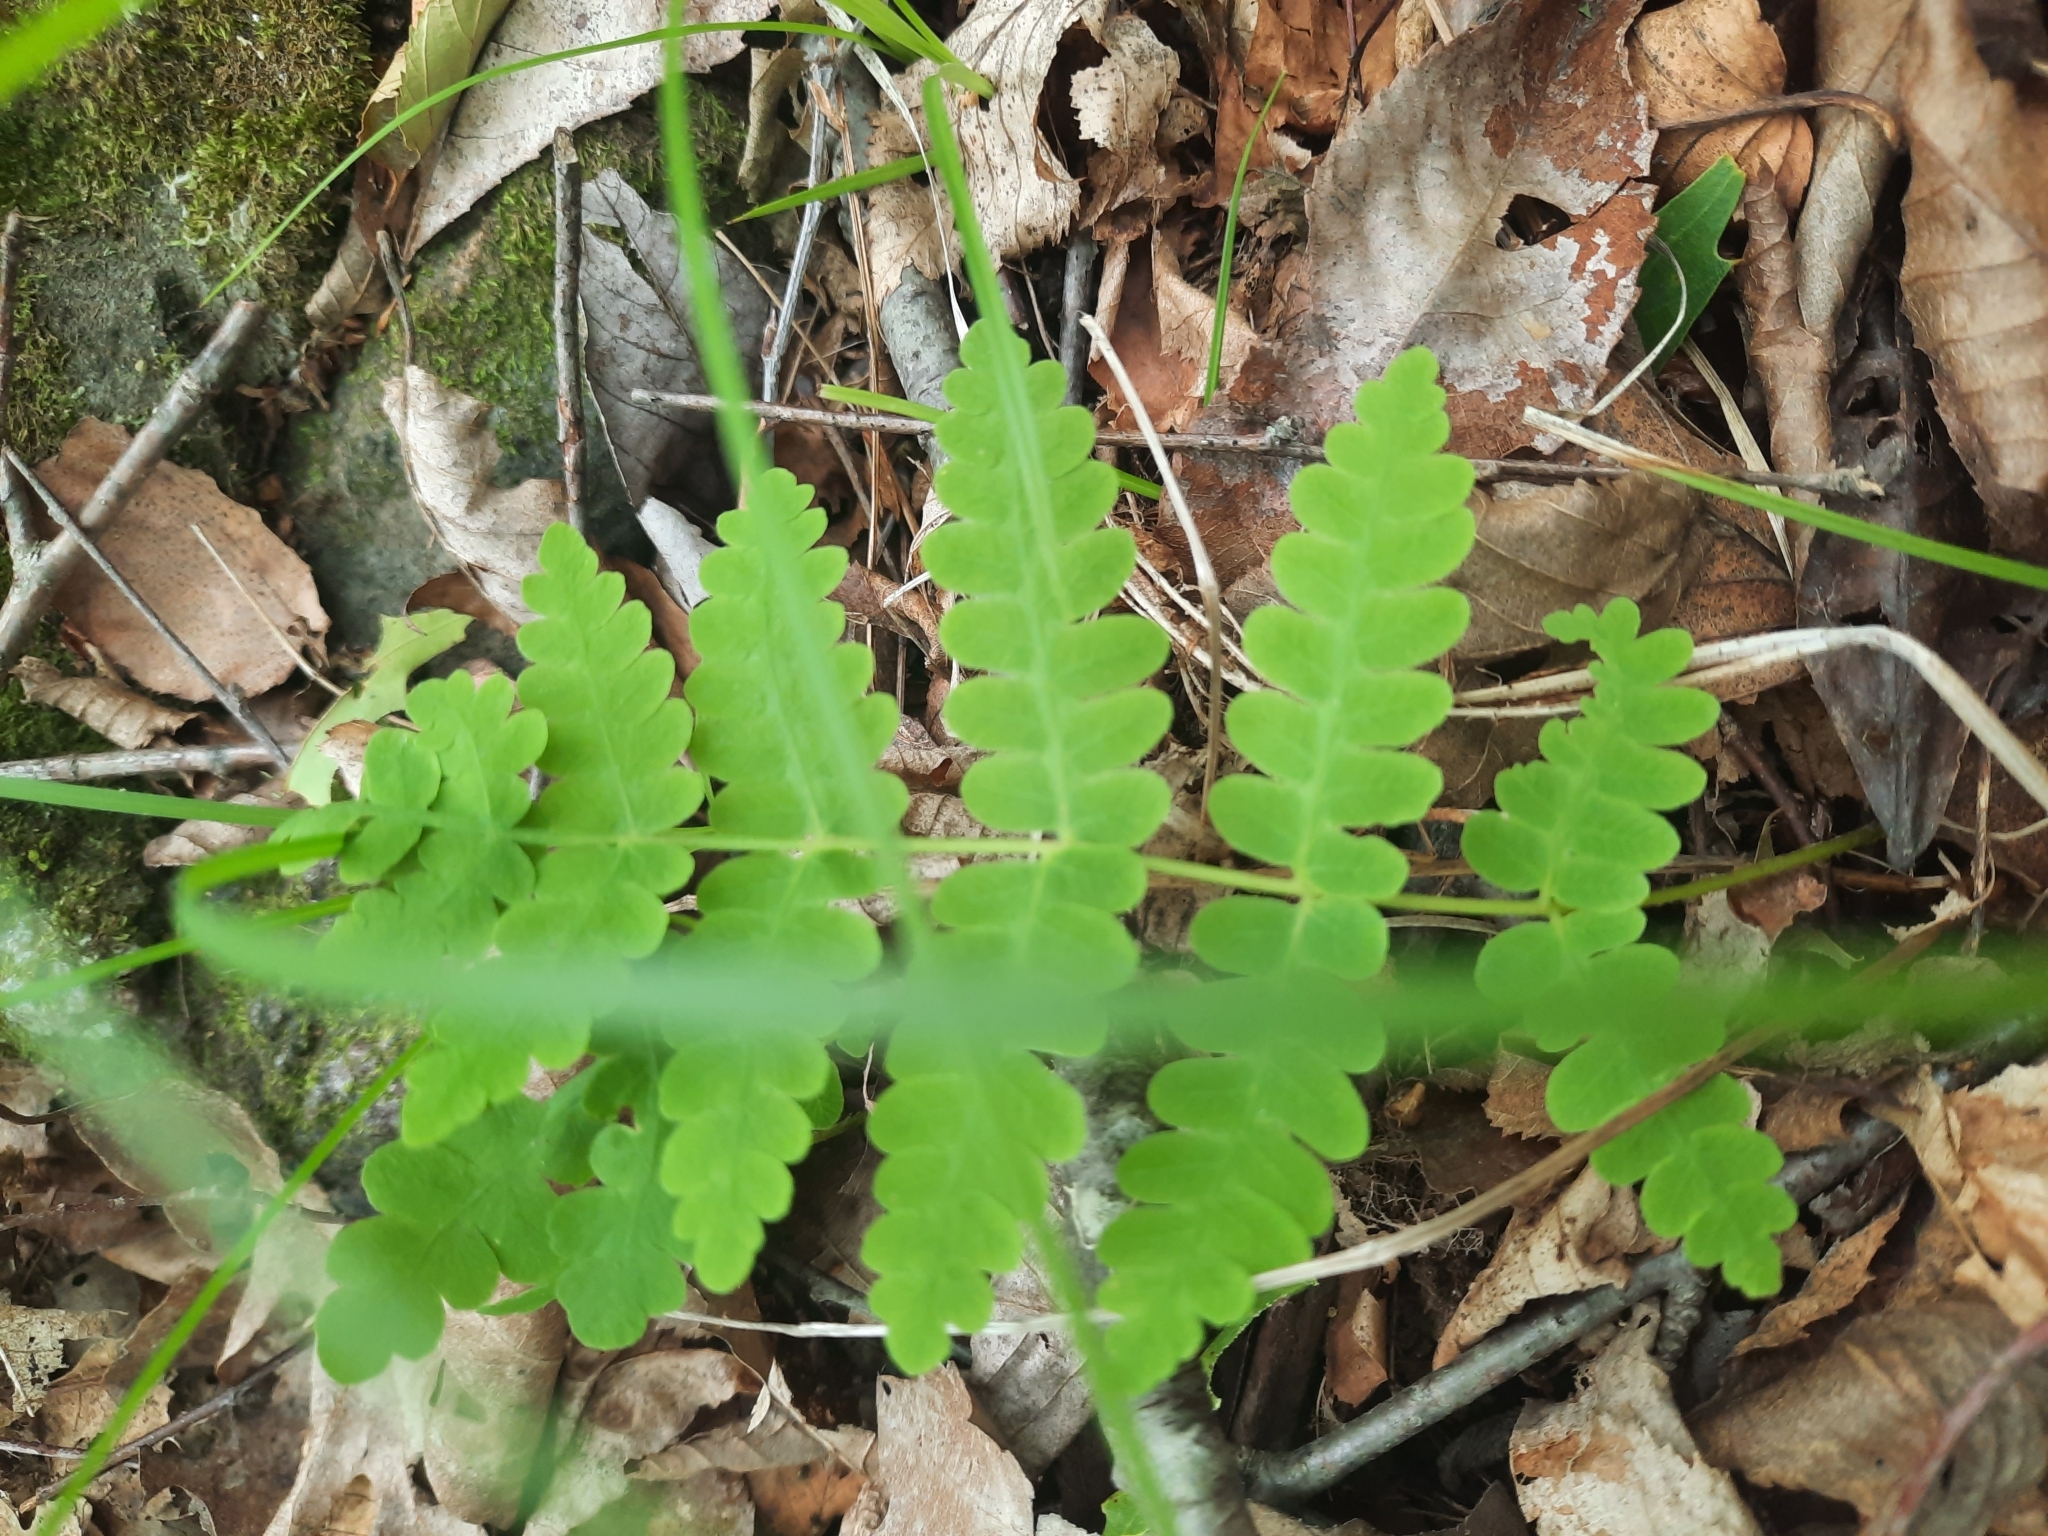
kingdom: Plantae
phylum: Tracheophyta
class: Polypodiopsida
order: Osmundales
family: Osmundaceae
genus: Claytosmunda
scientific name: Claytosmunda claytoniana
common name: Clayton's fern
